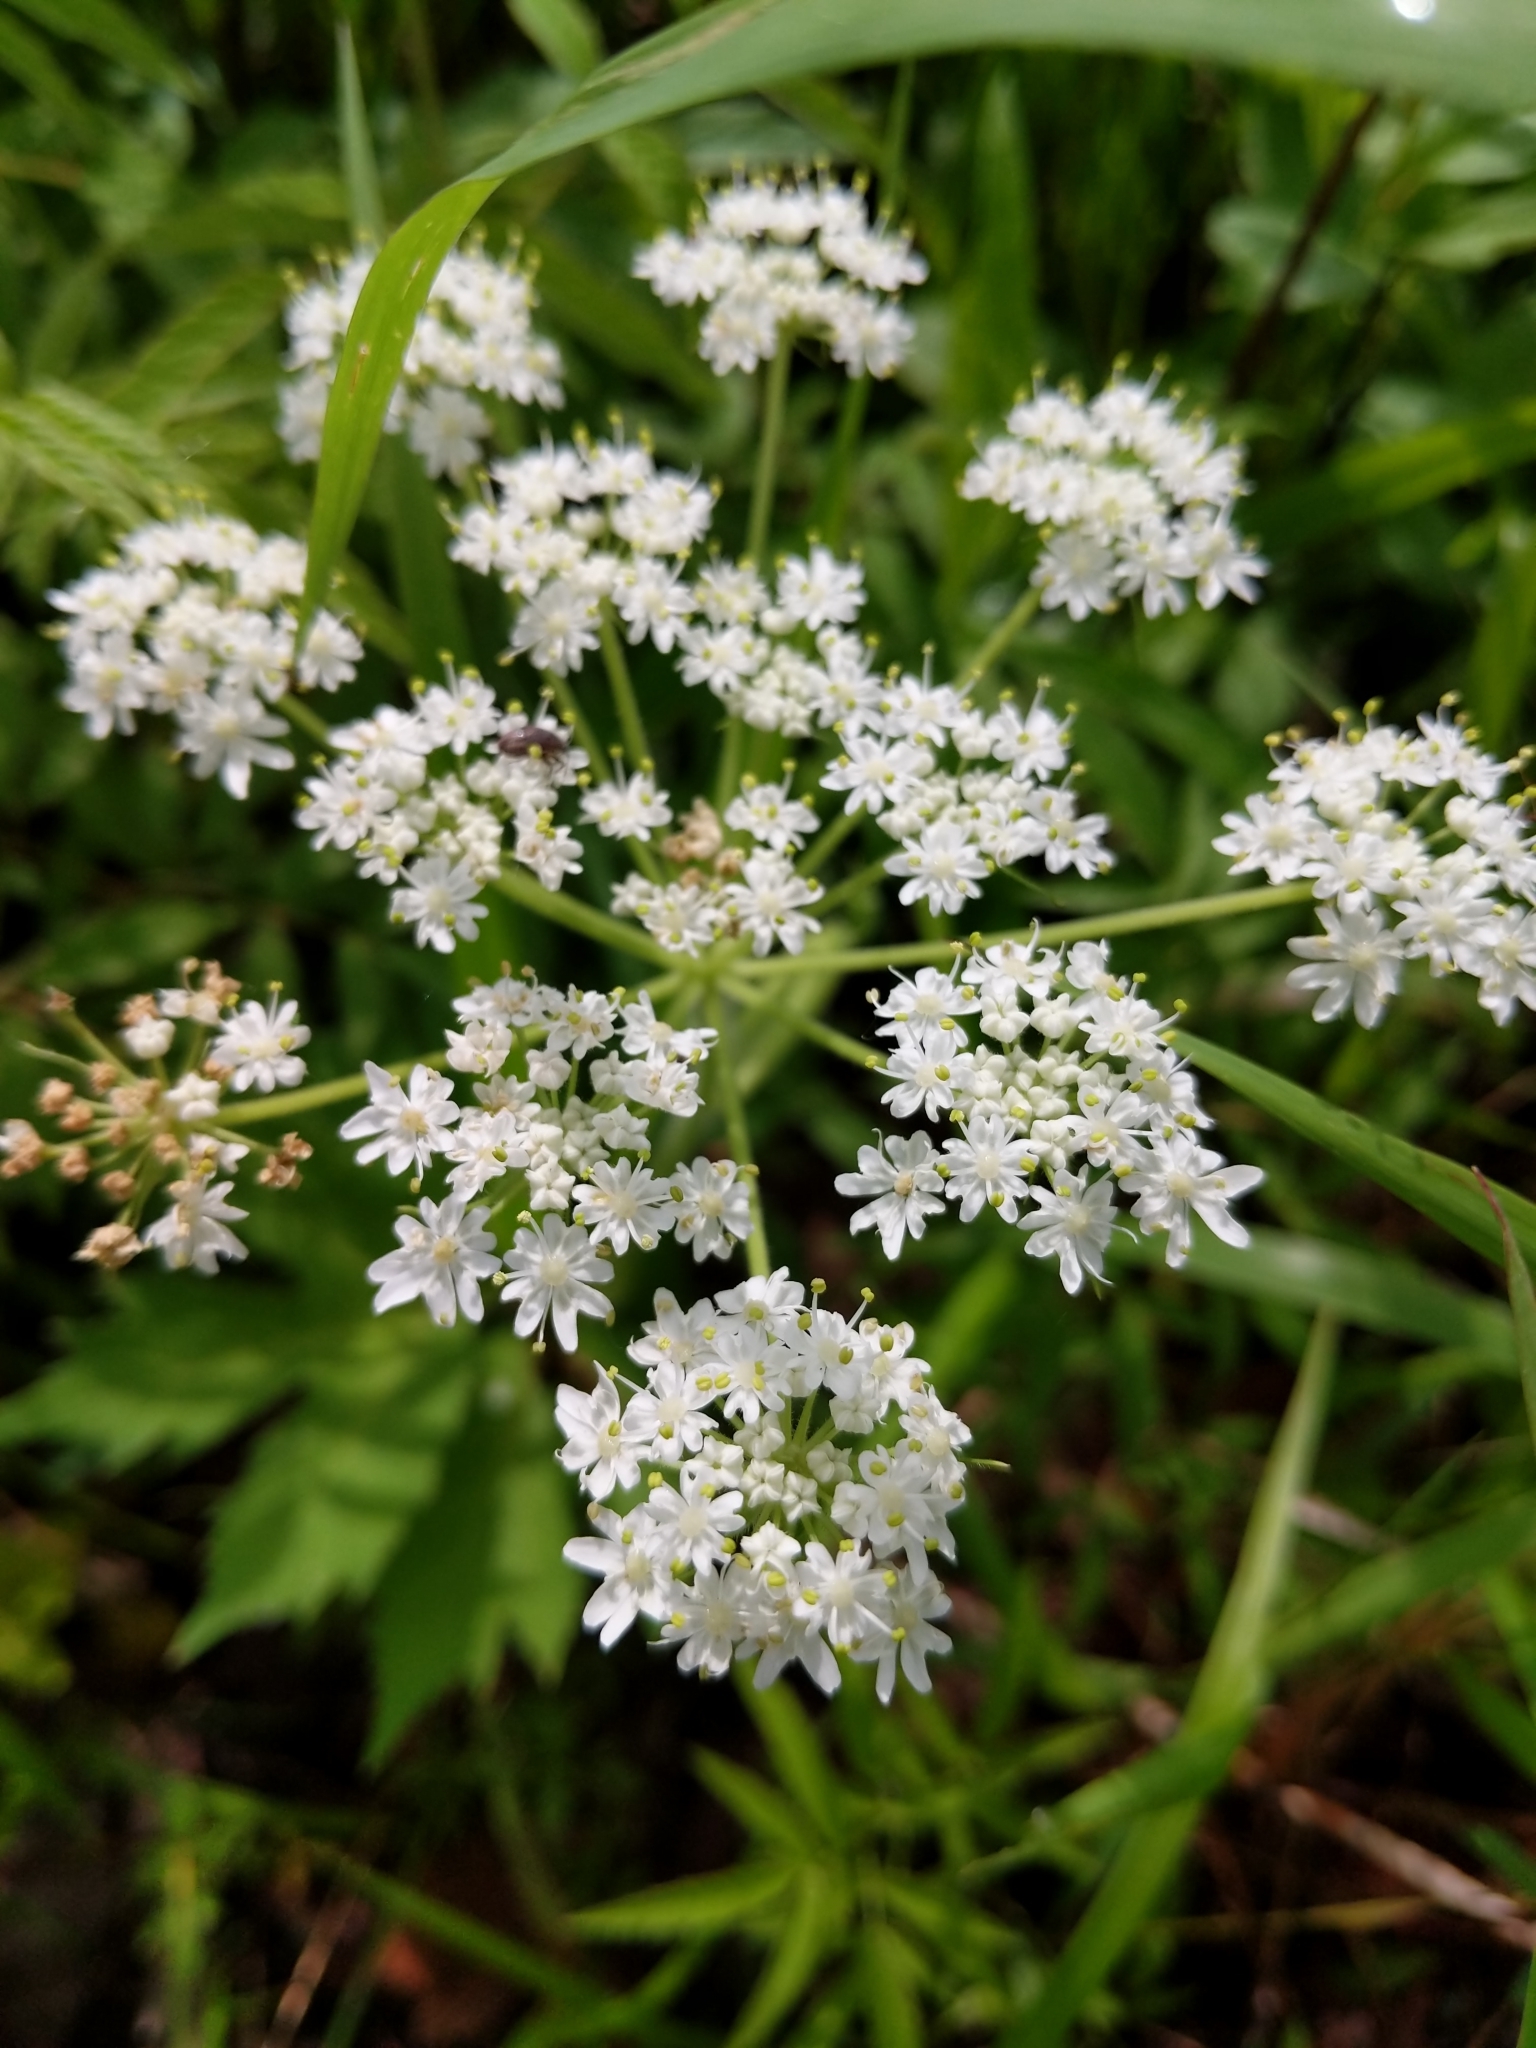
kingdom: Plantae
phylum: Tracheophyta
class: Magnoliopsida
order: Apiales
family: Apiaceae
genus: Heracleum
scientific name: Heracleum maximum
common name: American cow parsnip
